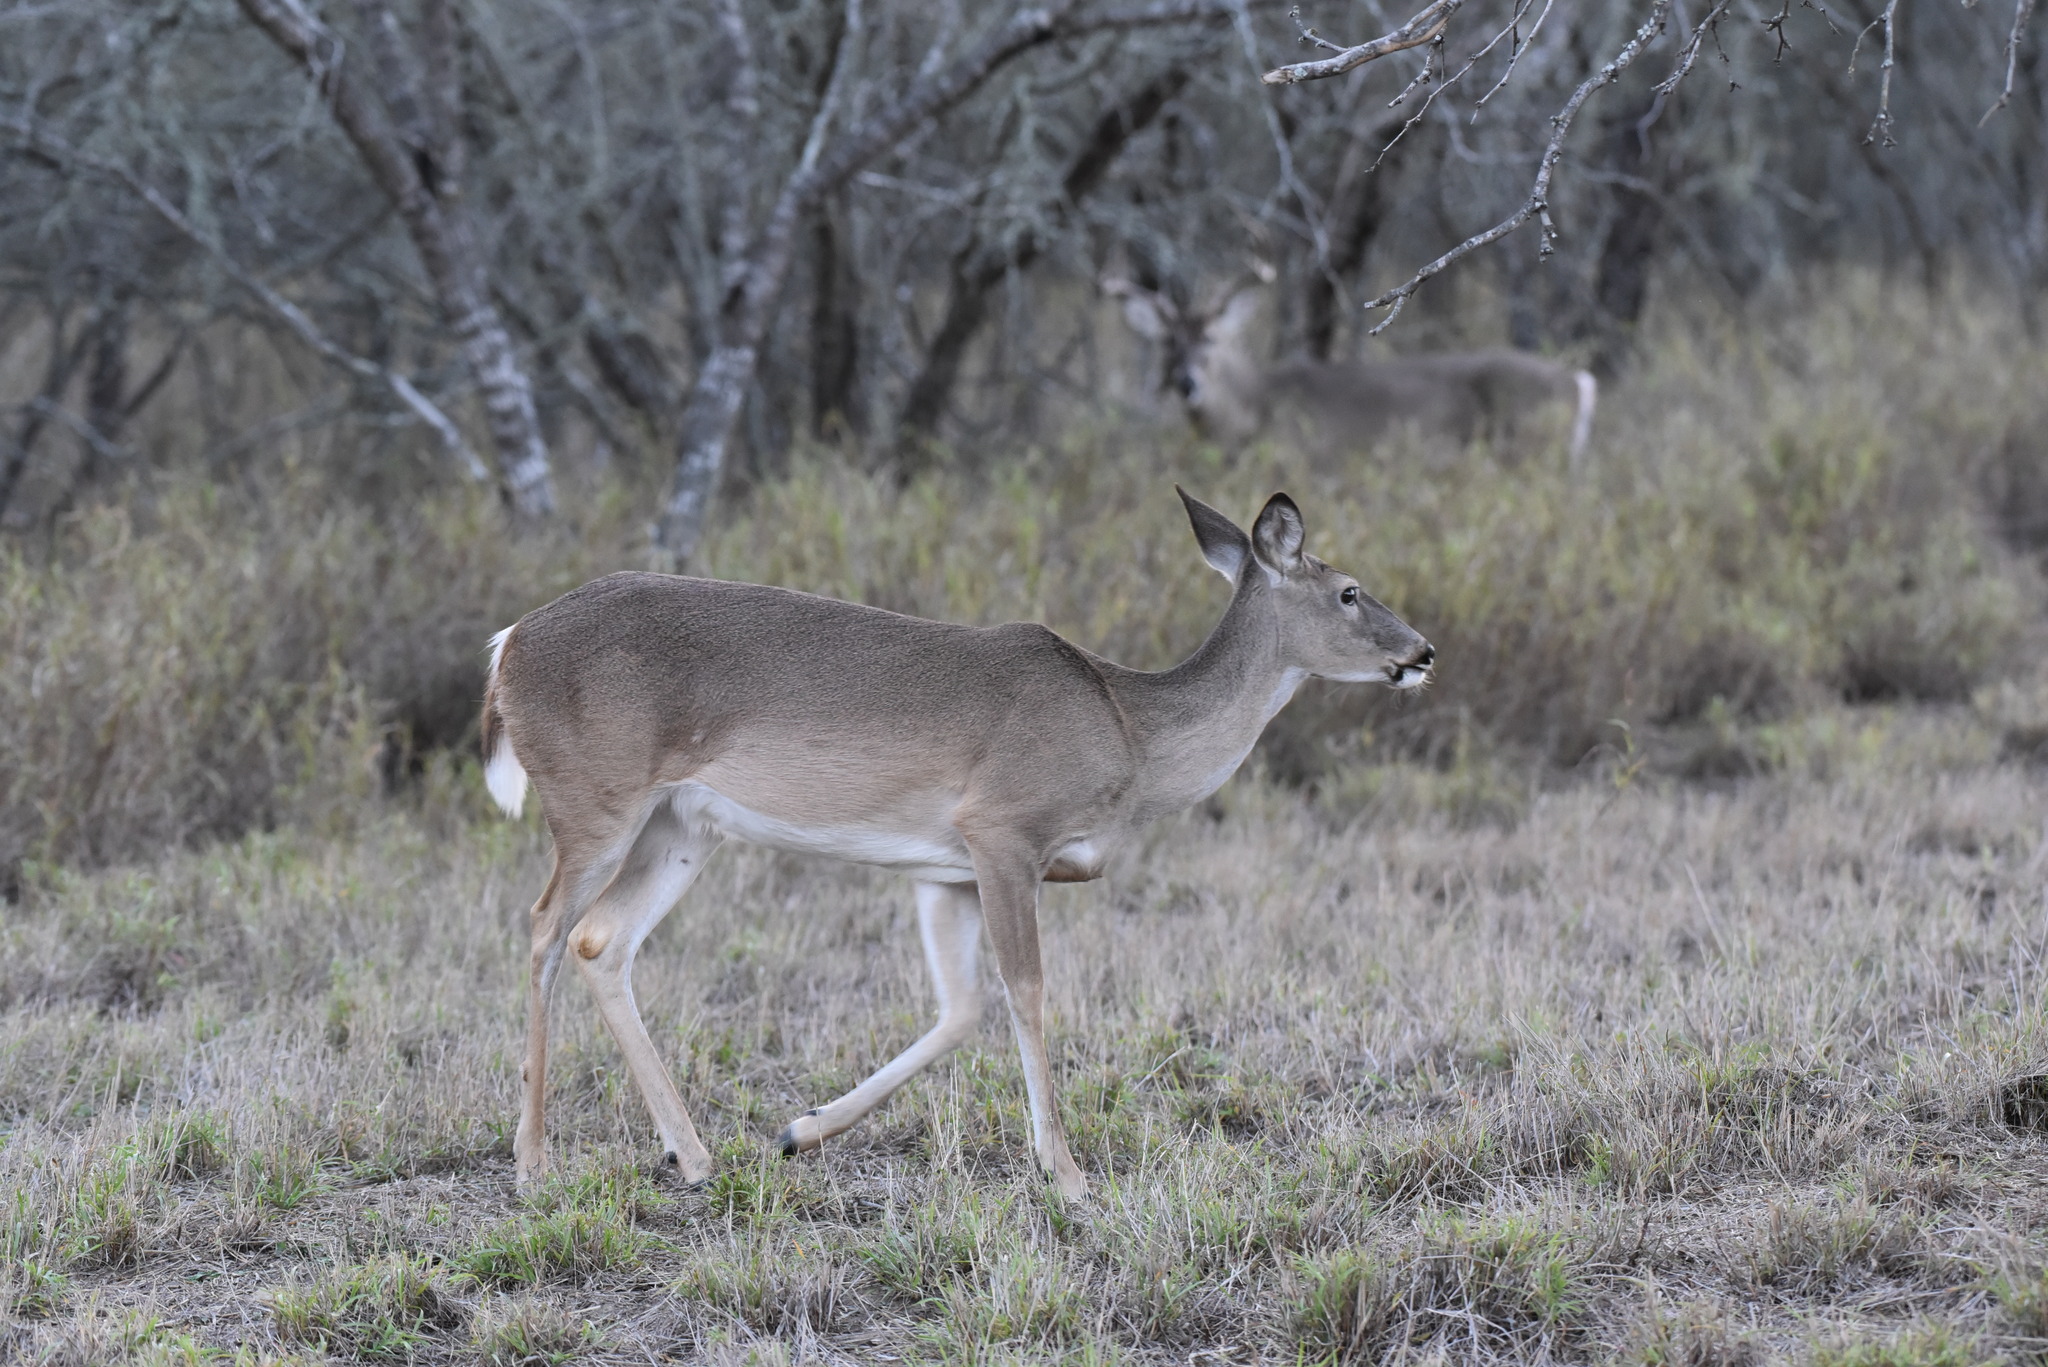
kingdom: Animalia
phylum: Chordata
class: Mammalia
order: Artiodactyla
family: Cervidae
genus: Odocoileus
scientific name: Odocoileus virginianus
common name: White-tailed deer
